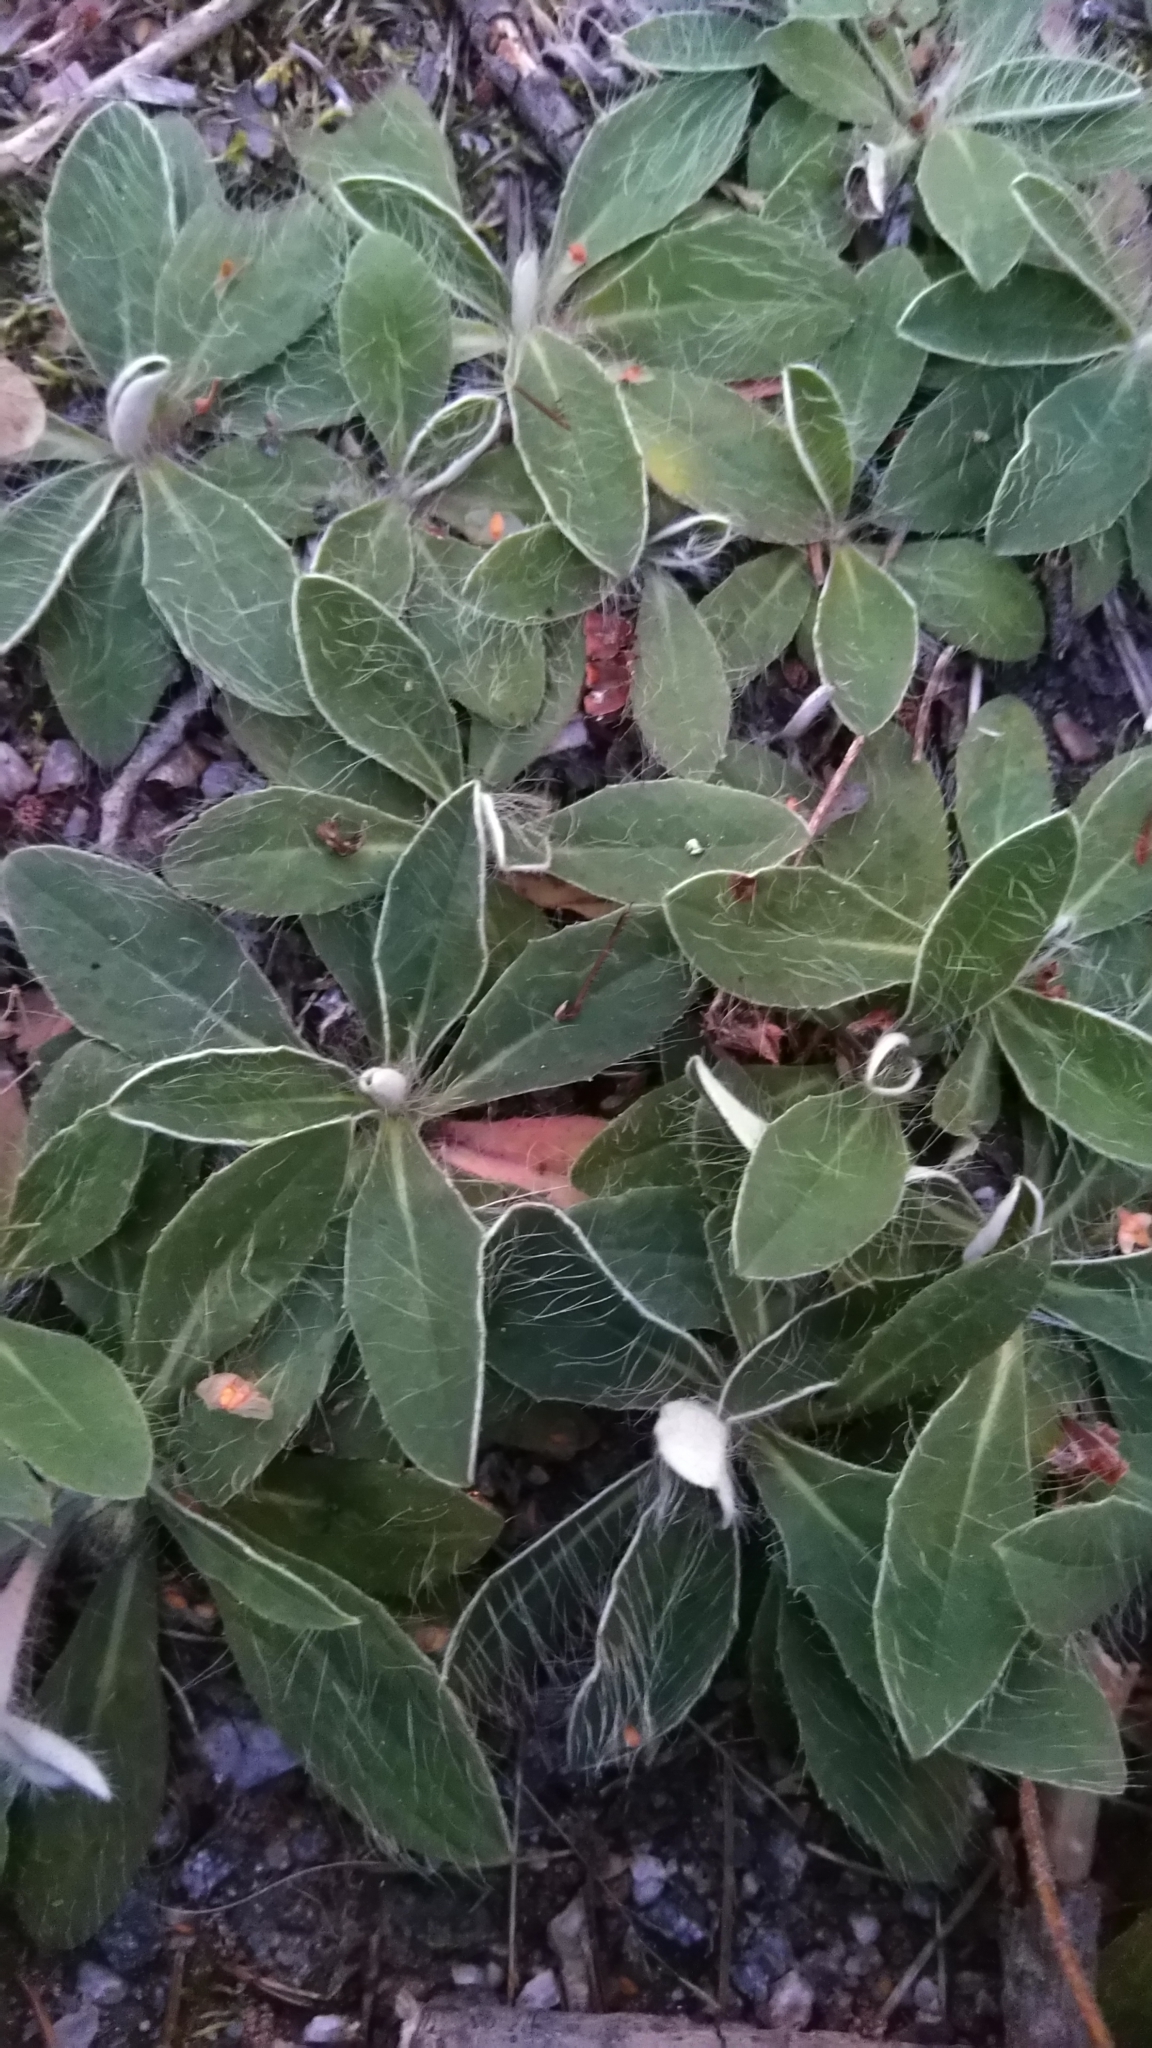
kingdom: Plantae
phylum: Tracheophyta
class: Magnoliopsida
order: Asterales
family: Asteraceae
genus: Pilosella
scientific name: Pilosella officinarum
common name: Mouse-ear hawkweed
